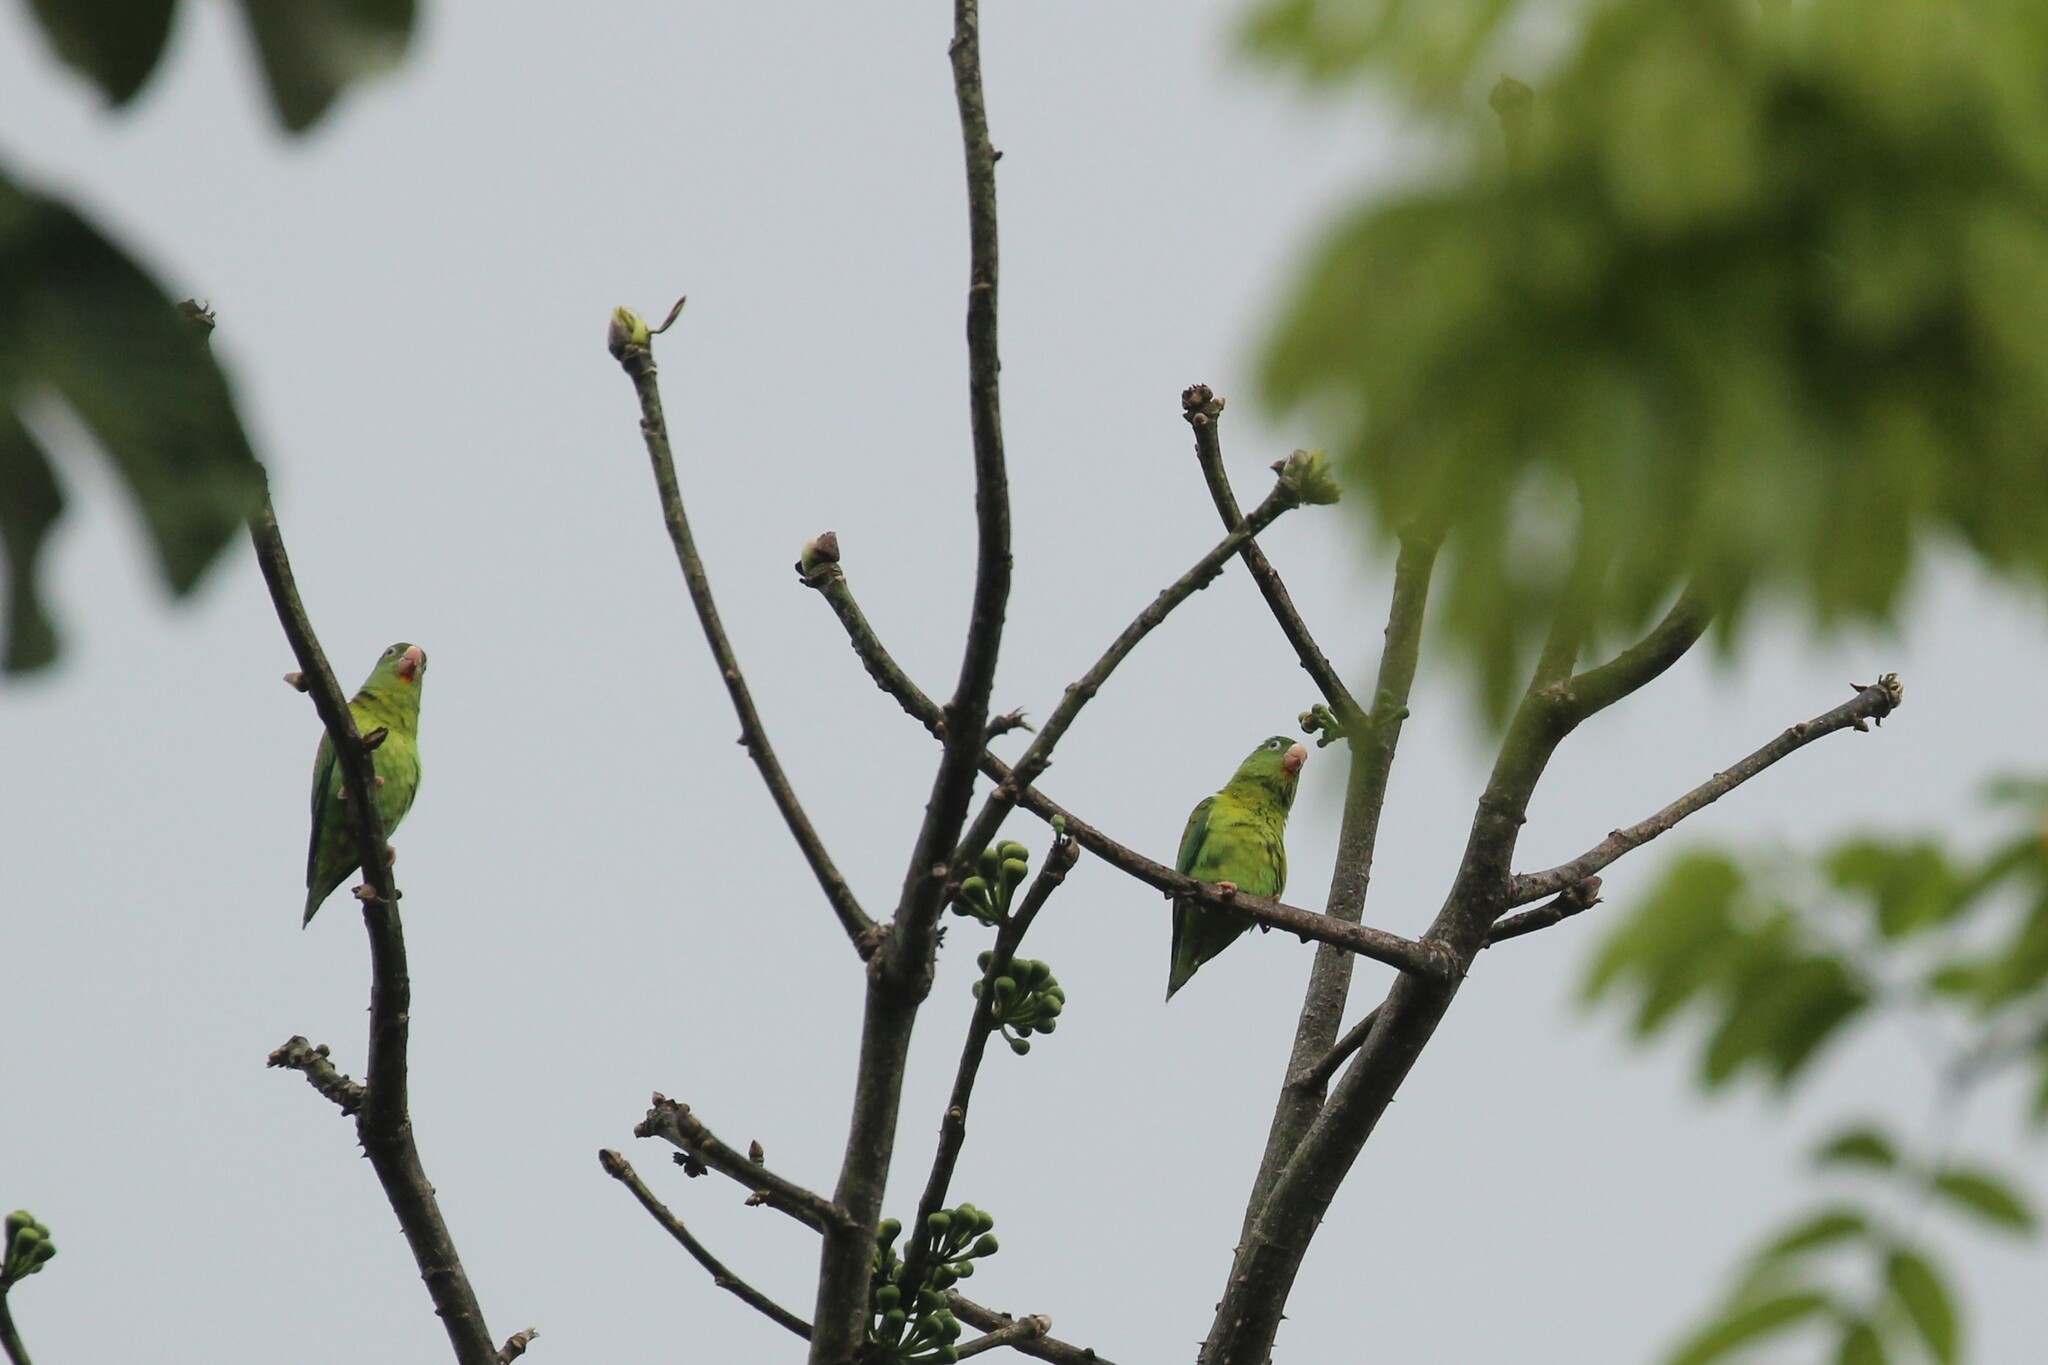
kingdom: Animalia
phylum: Chordata
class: Aves
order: Psittaciformes
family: Psittacidae
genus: Brotogeris
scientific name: Brotogeris jugularis
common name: Orange-chinned parakeet
